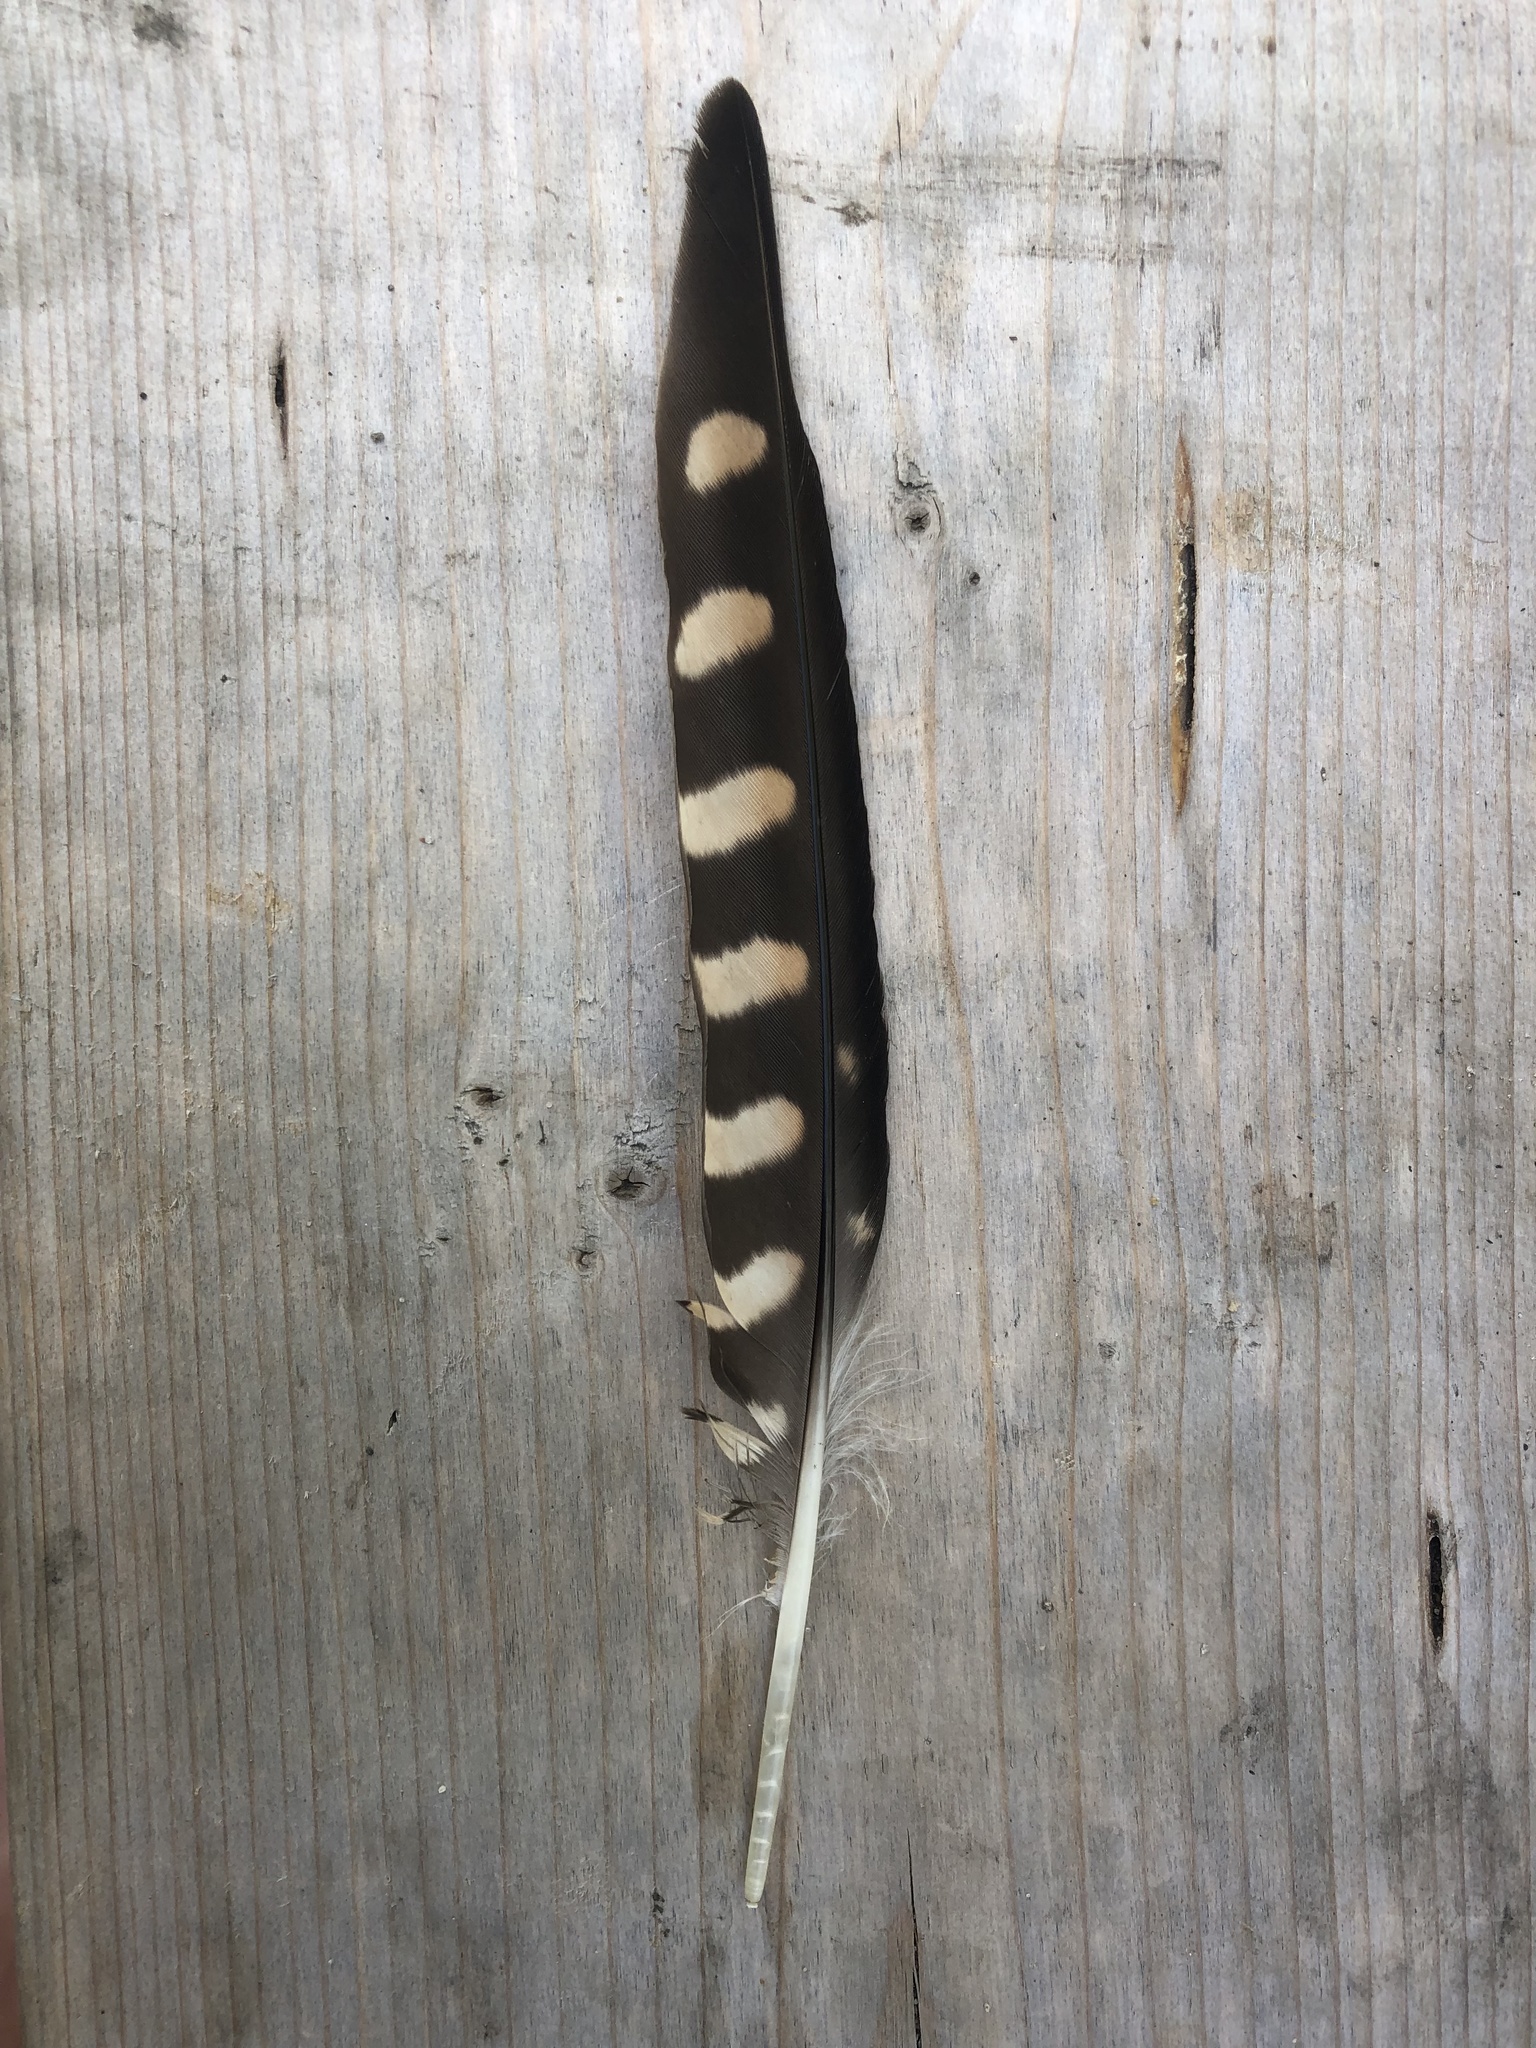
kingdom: Animalia
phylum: Chordata
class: Aves
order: Falconiformes
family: Falconidae
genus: Falco
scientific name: Falco columbarius
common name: Merlin
